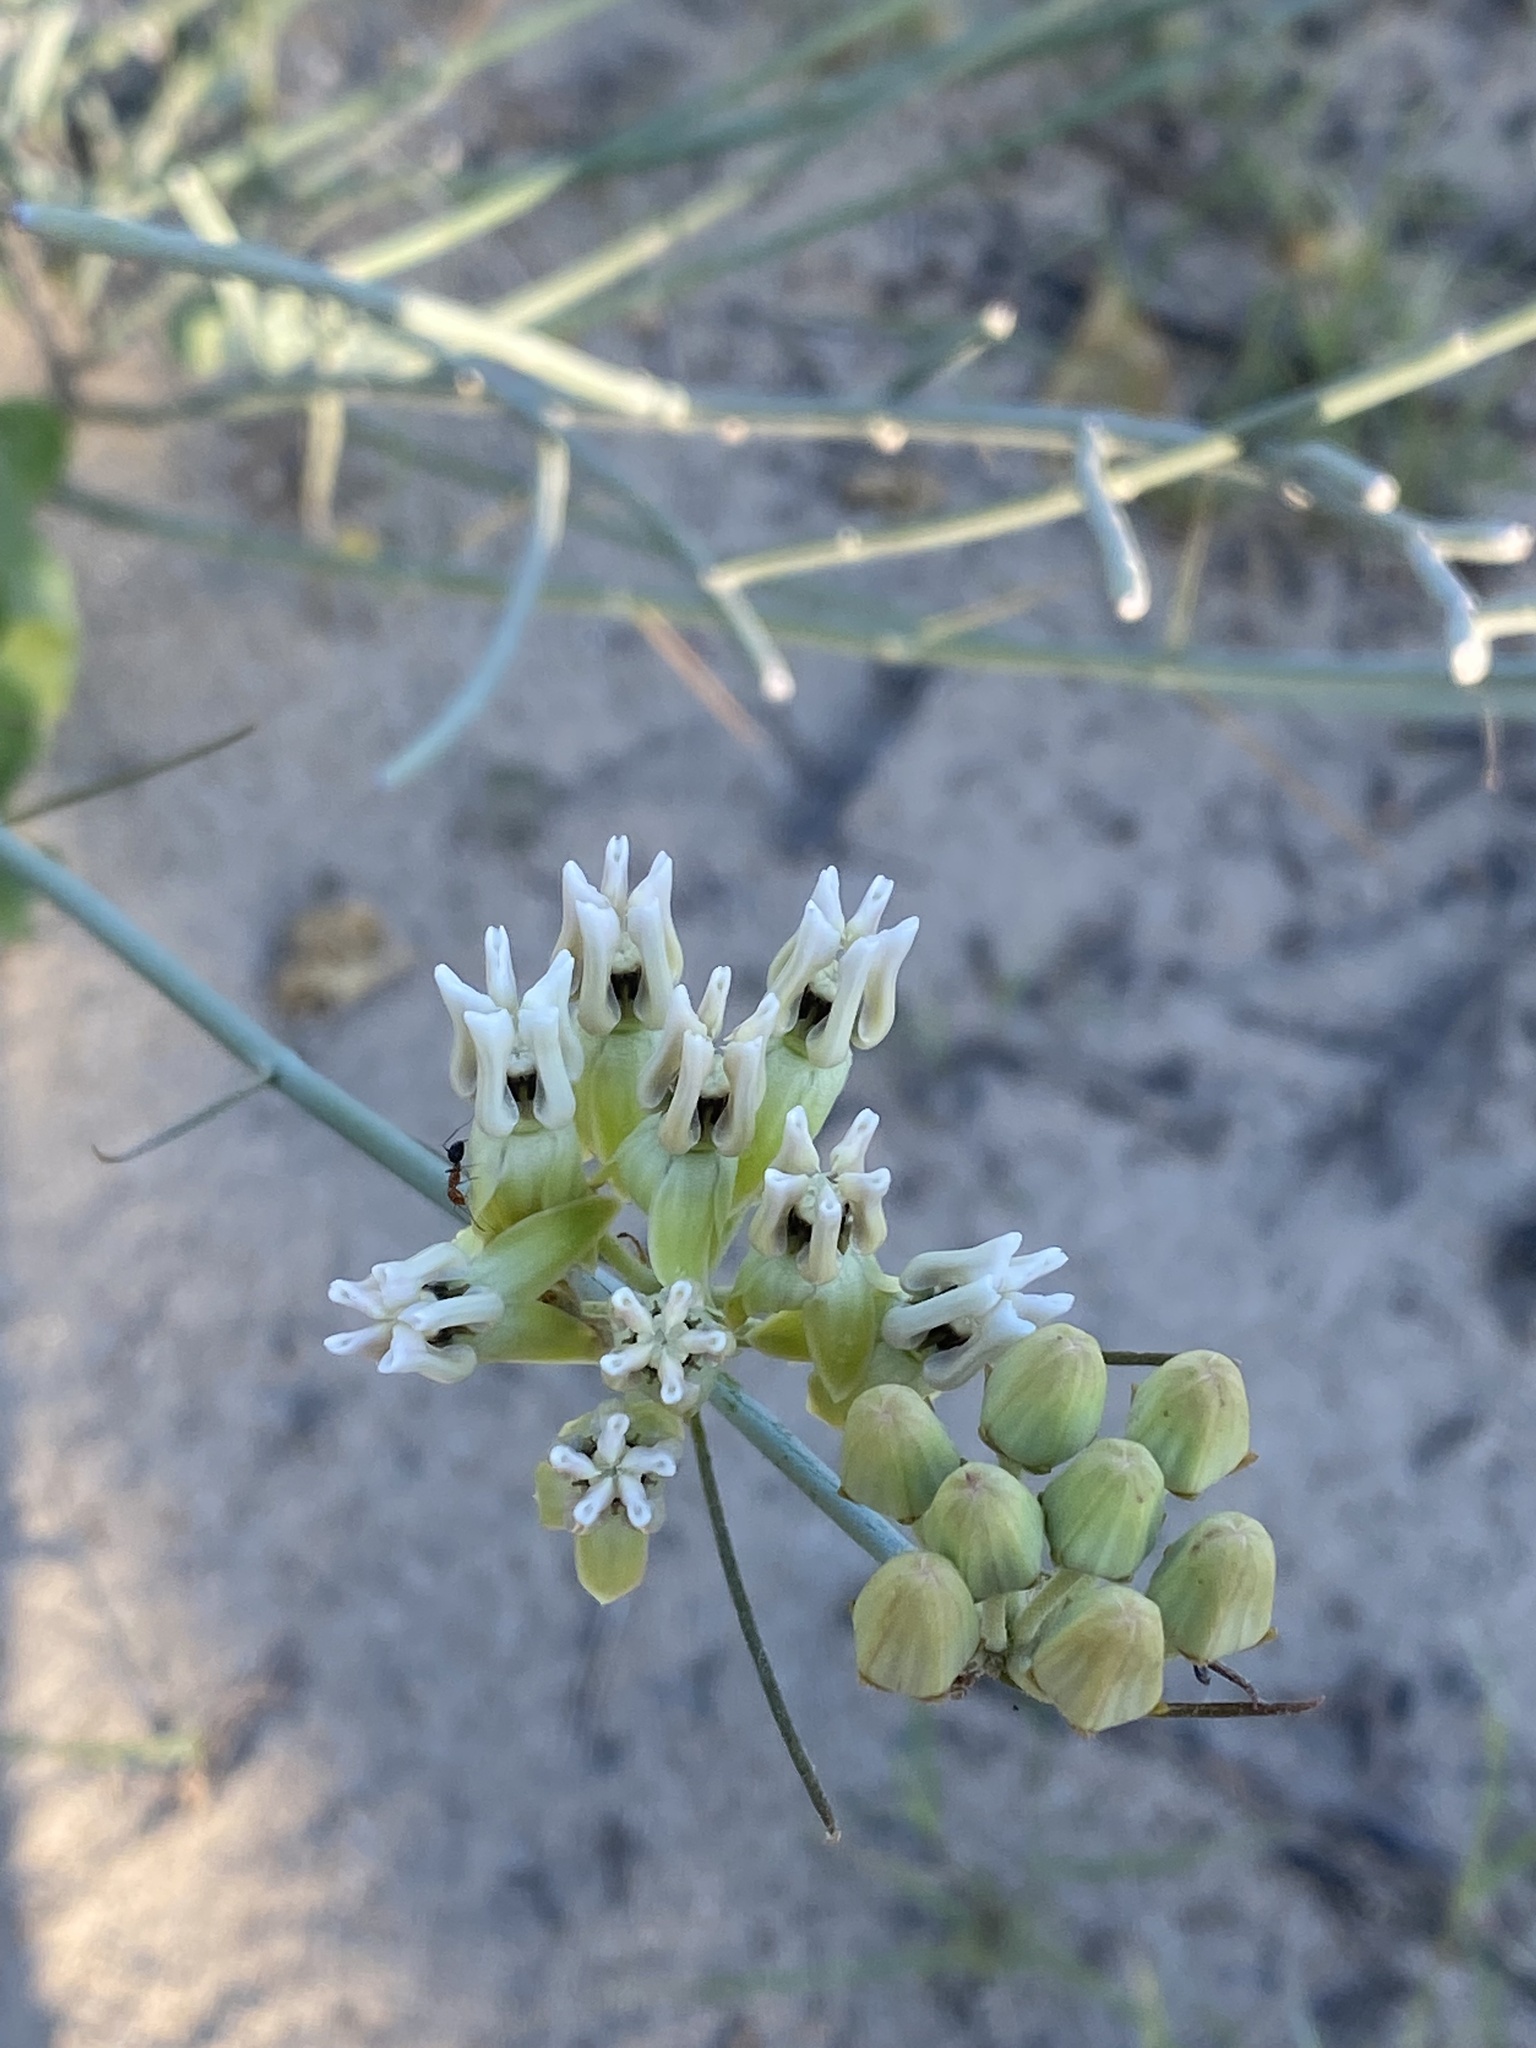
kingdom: Plantae
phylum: Tracheophyta
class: Magnoliopsida
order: Gentianales
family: Apocynaceae
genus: Asclepias
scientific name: Asclepias subulata
